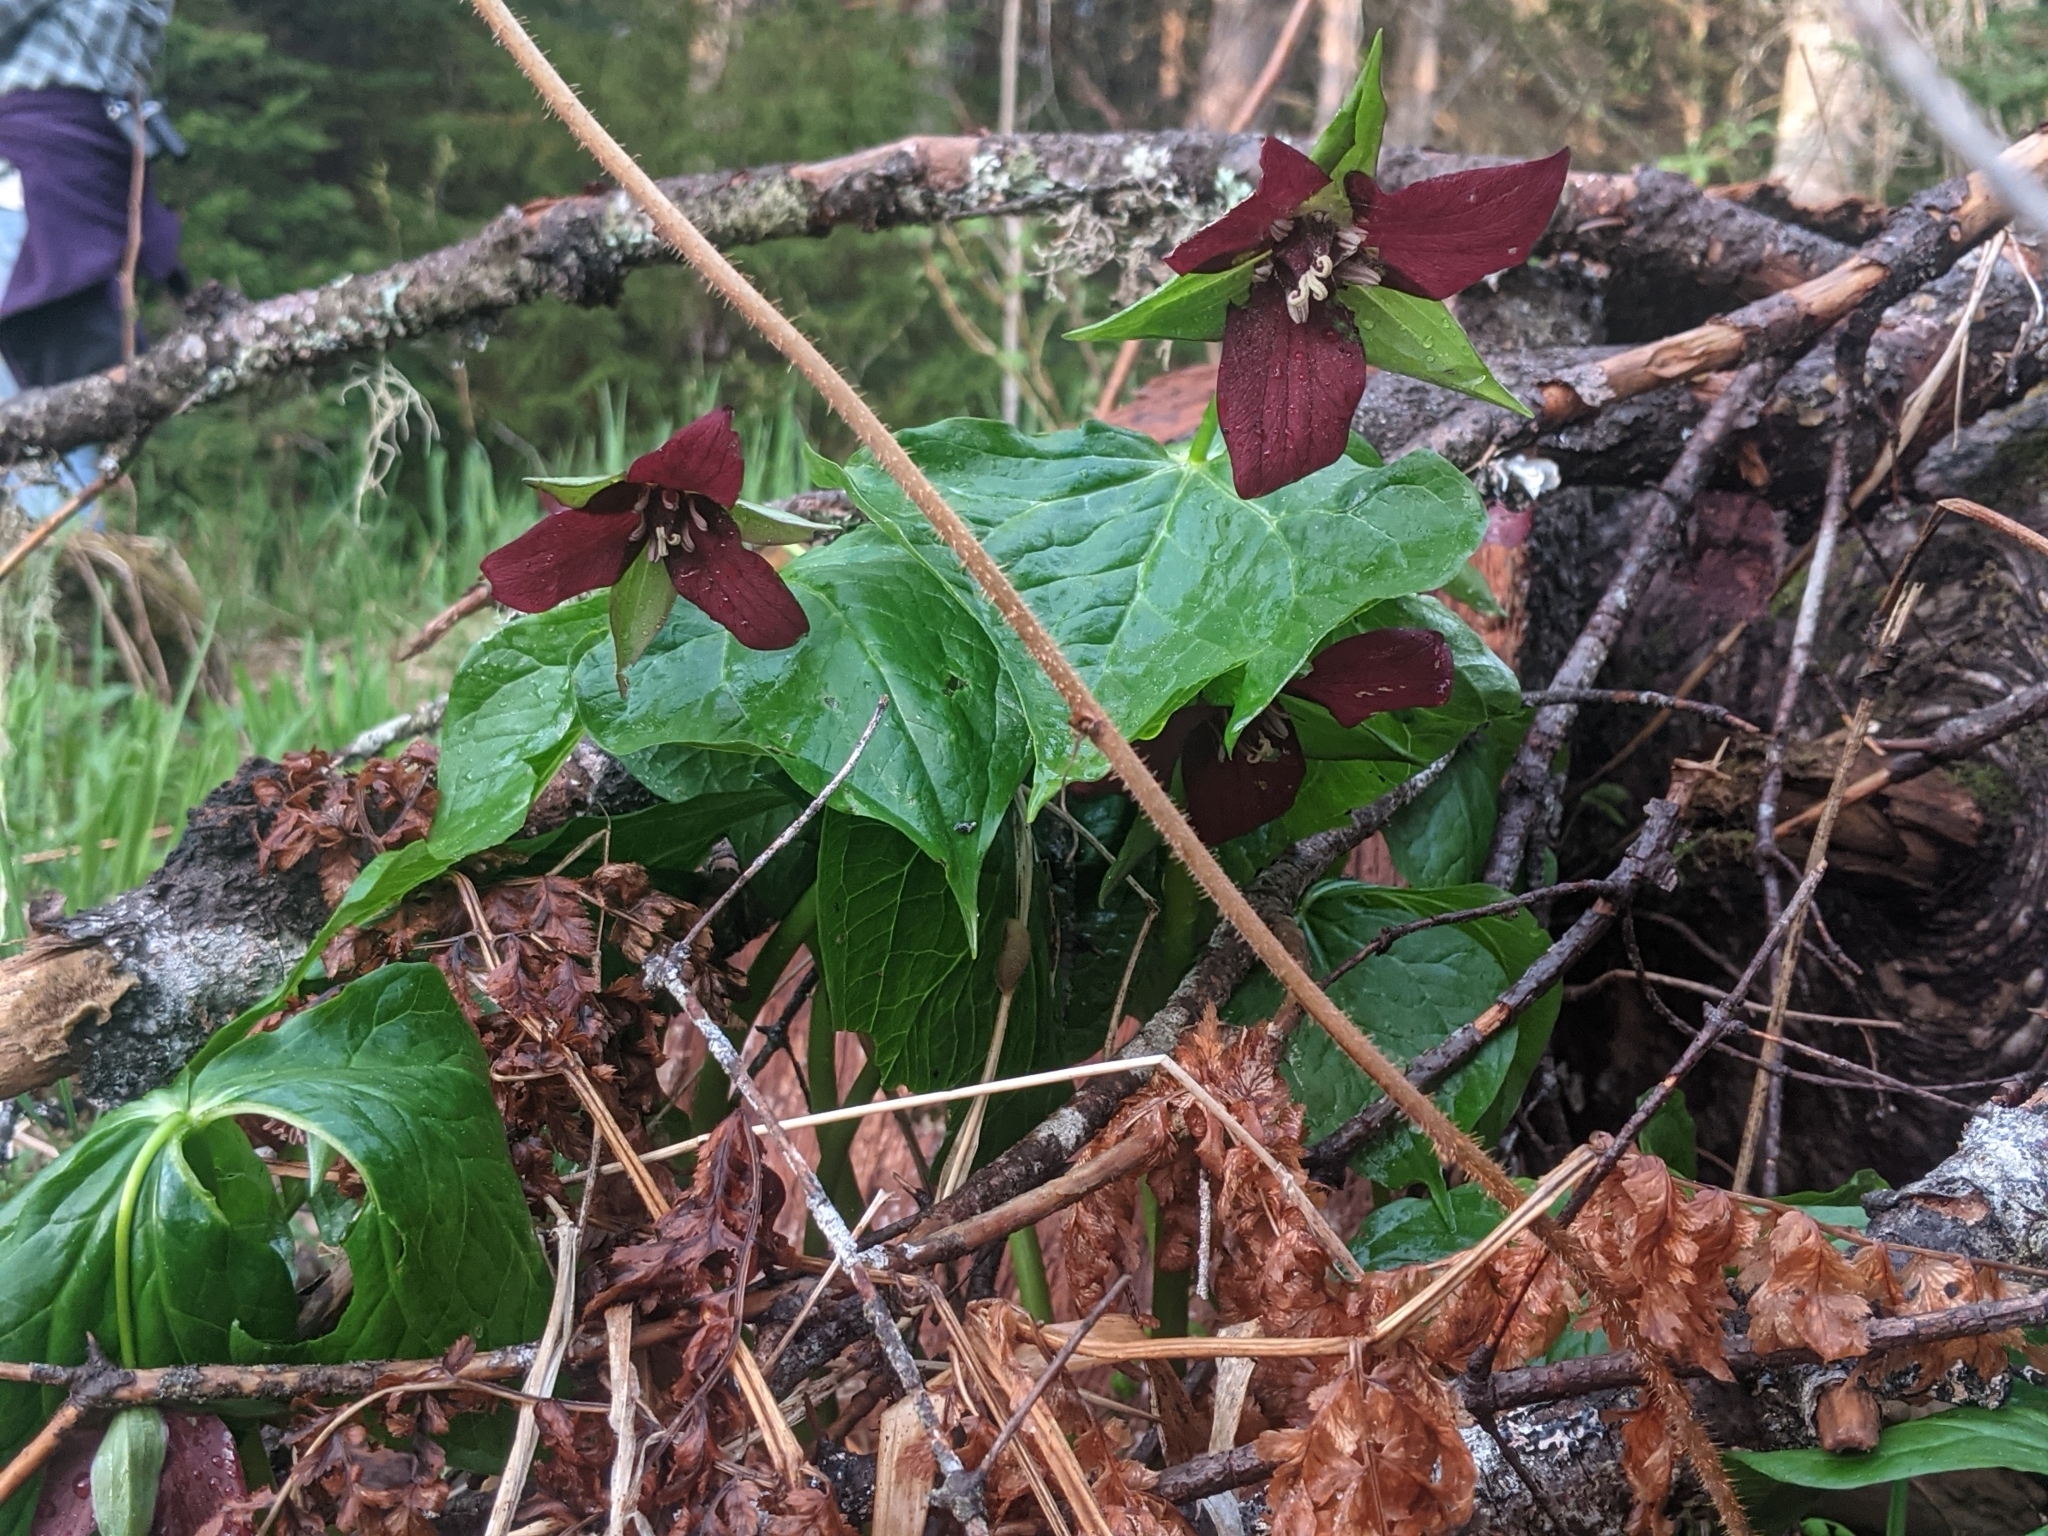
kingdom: Plantae
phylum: Tracheophyta
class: Liliopsida
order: Liliales
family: Melanthiaceae
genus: Trillium
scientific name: Trillium erectum
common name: Purple trillium
